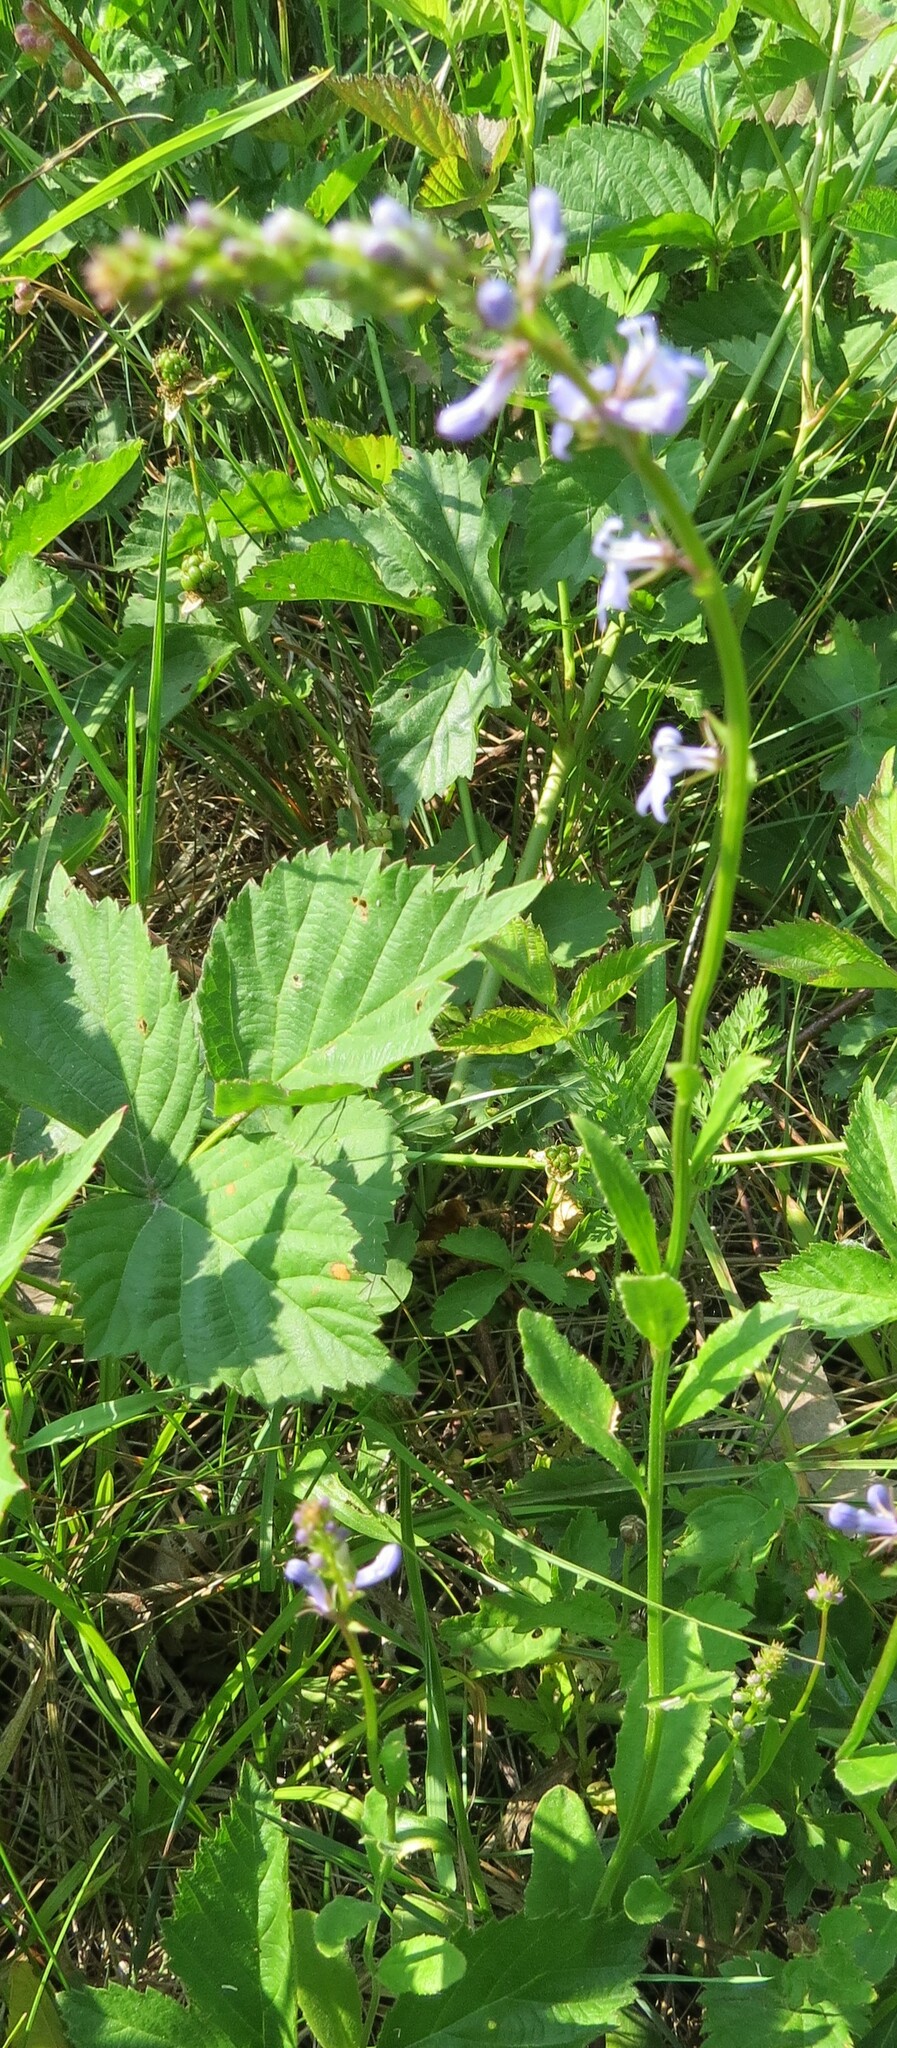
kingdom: Plantae
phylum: Tracheophyta
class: Magnoliopsida
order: Asterales
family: Campanulaceae
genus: Lobelia
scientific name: Lobelia spicata
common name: Pale-spike lobelia
